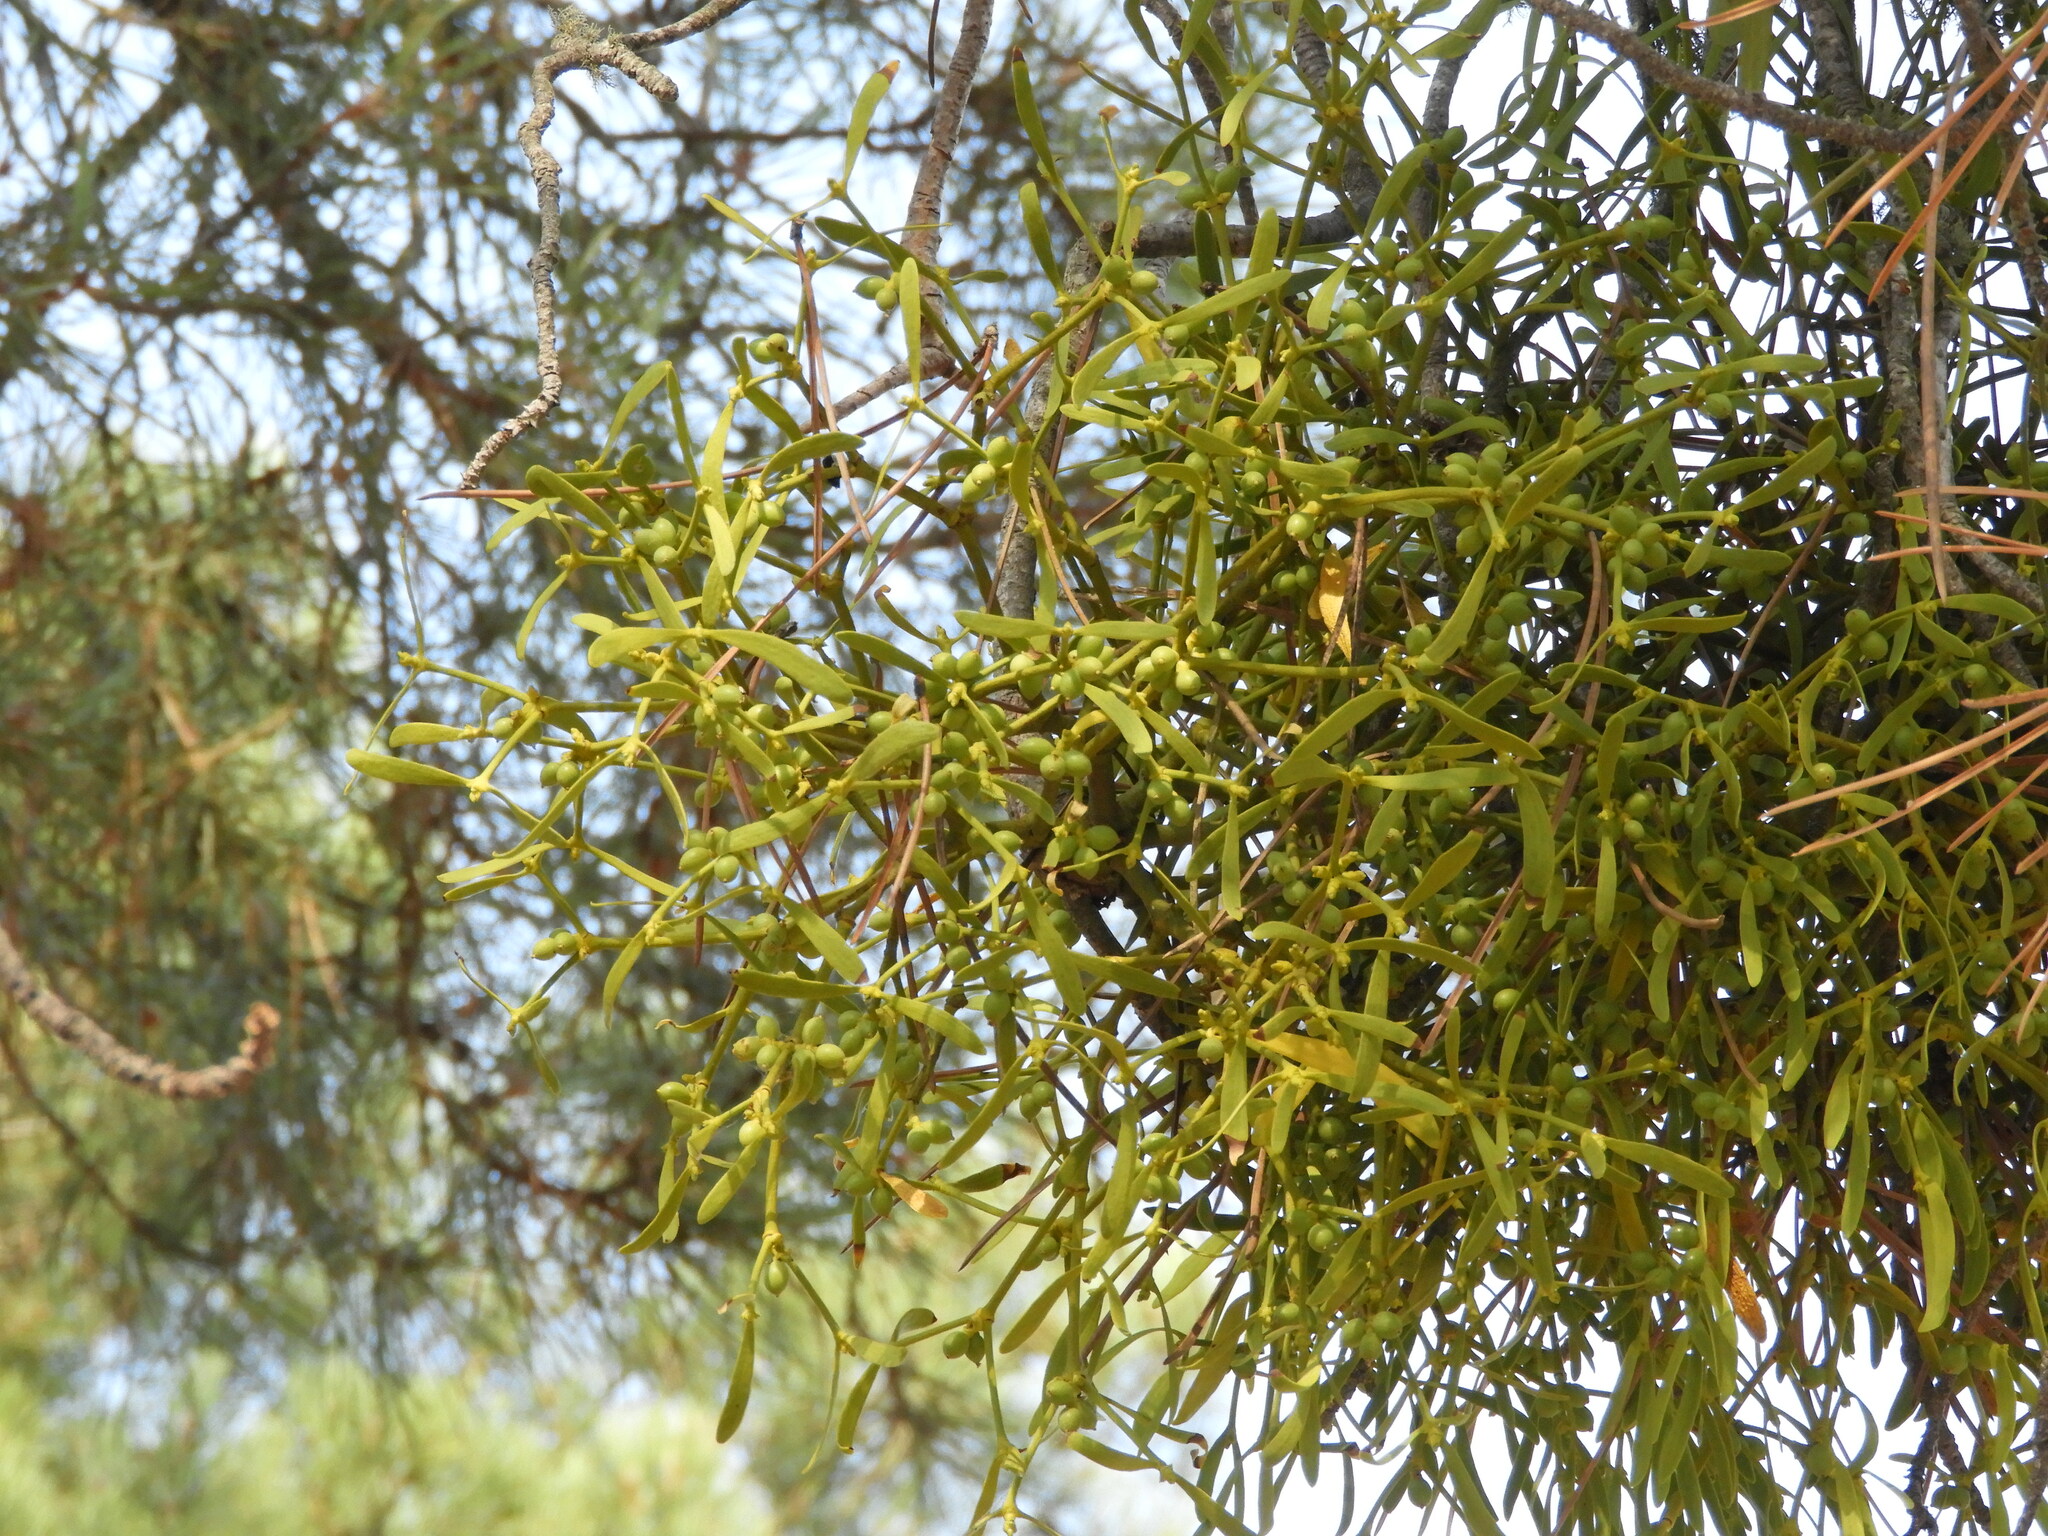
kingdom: Plantae
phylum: Tracheophyta
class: Magnoliopsida
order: Santalales
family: Viscaceae
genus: Viscum
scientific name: Viscum album
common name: Mistletoe
